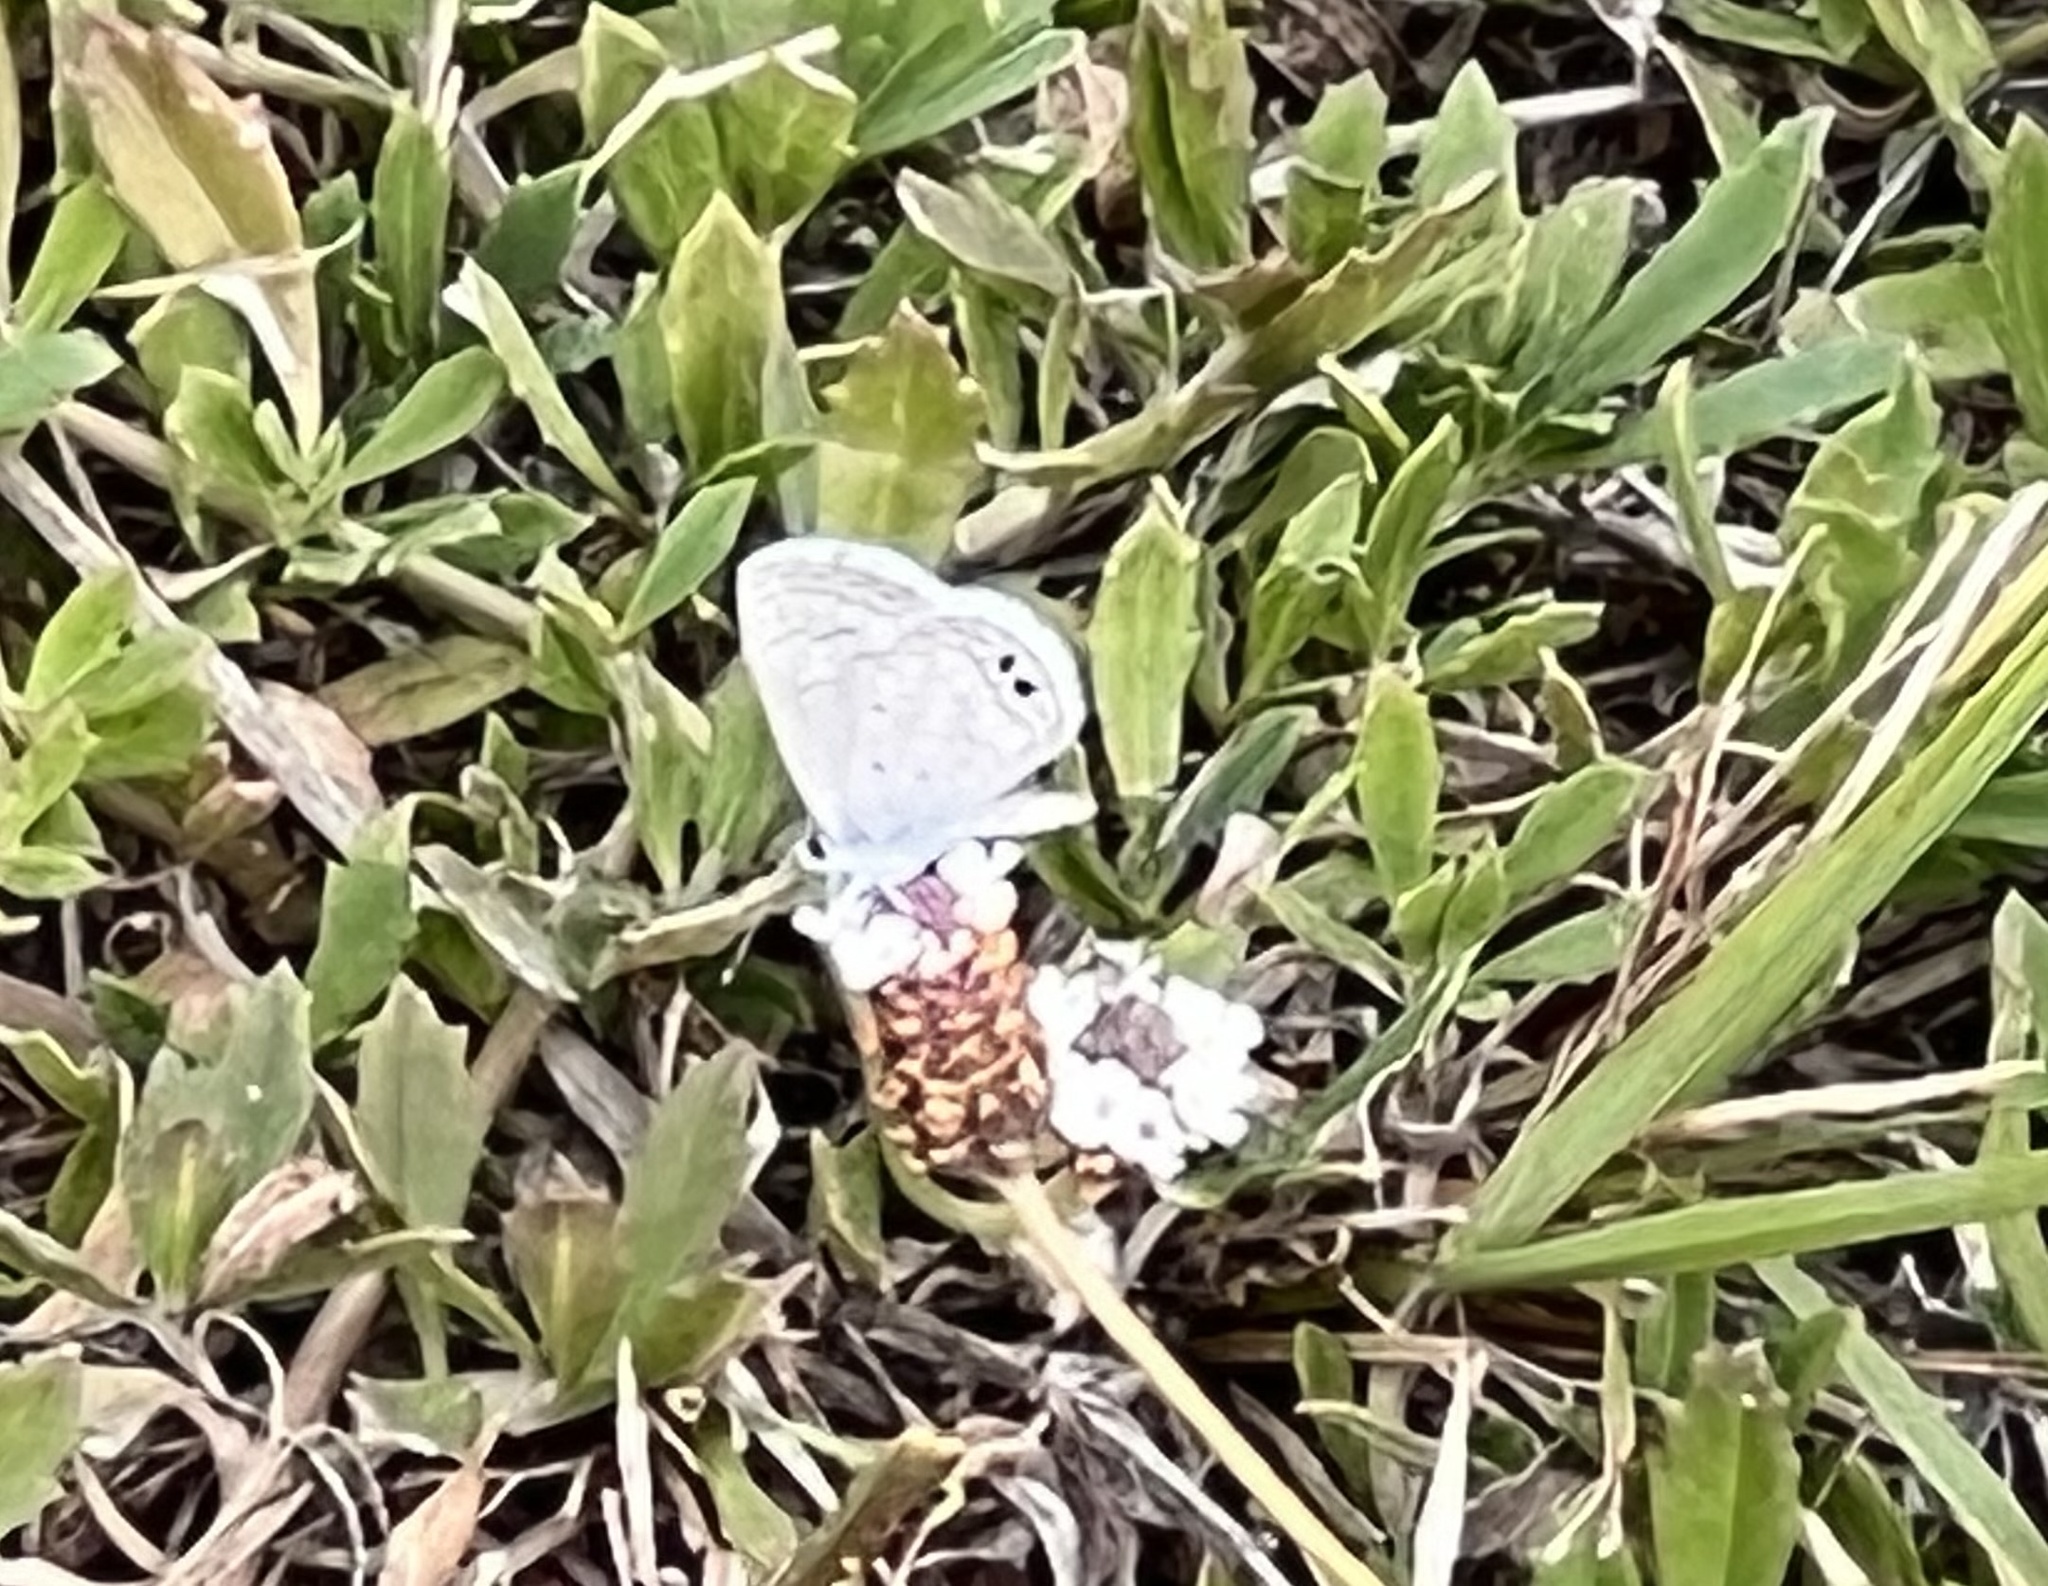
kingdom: Animalia
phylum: Arthropoda
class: Insecta
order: Lepidoptera
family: Lycaenidae
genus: Hemiargus
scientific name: Hemiargus ceraunus
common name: Ceraunus blue
